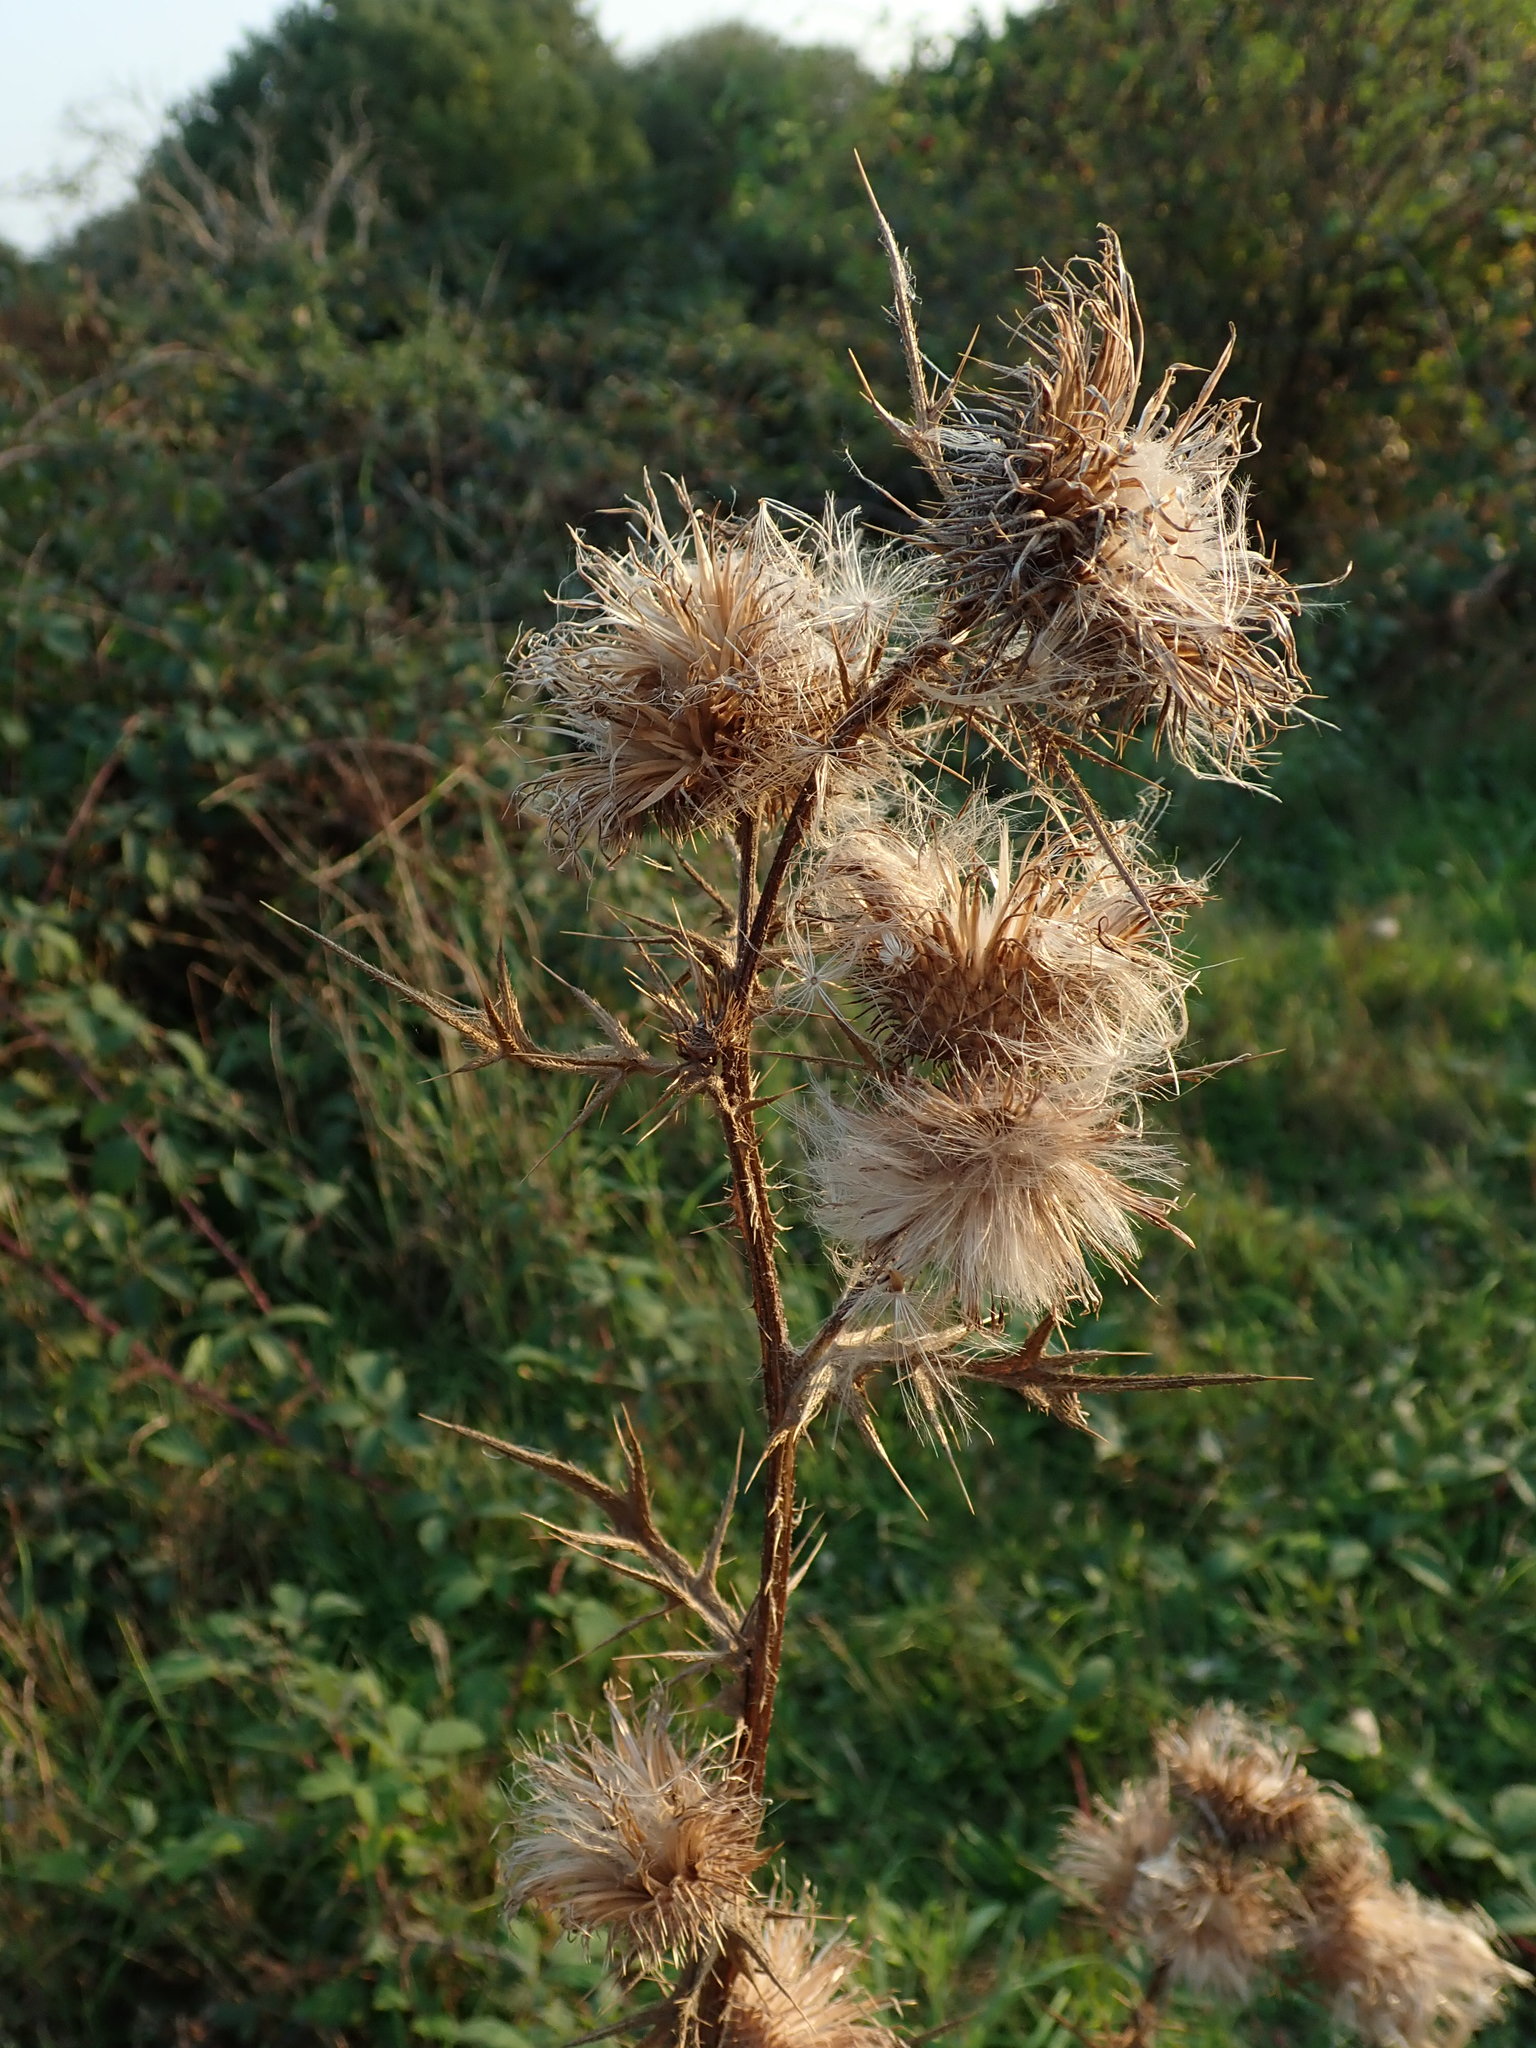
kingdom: Plantae
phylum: Tracheophyta
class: Magnoliopsida
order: Asterales
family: Asteraceae
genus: Cirsium
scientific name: Cirsium vulgare
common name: Bull thistle
